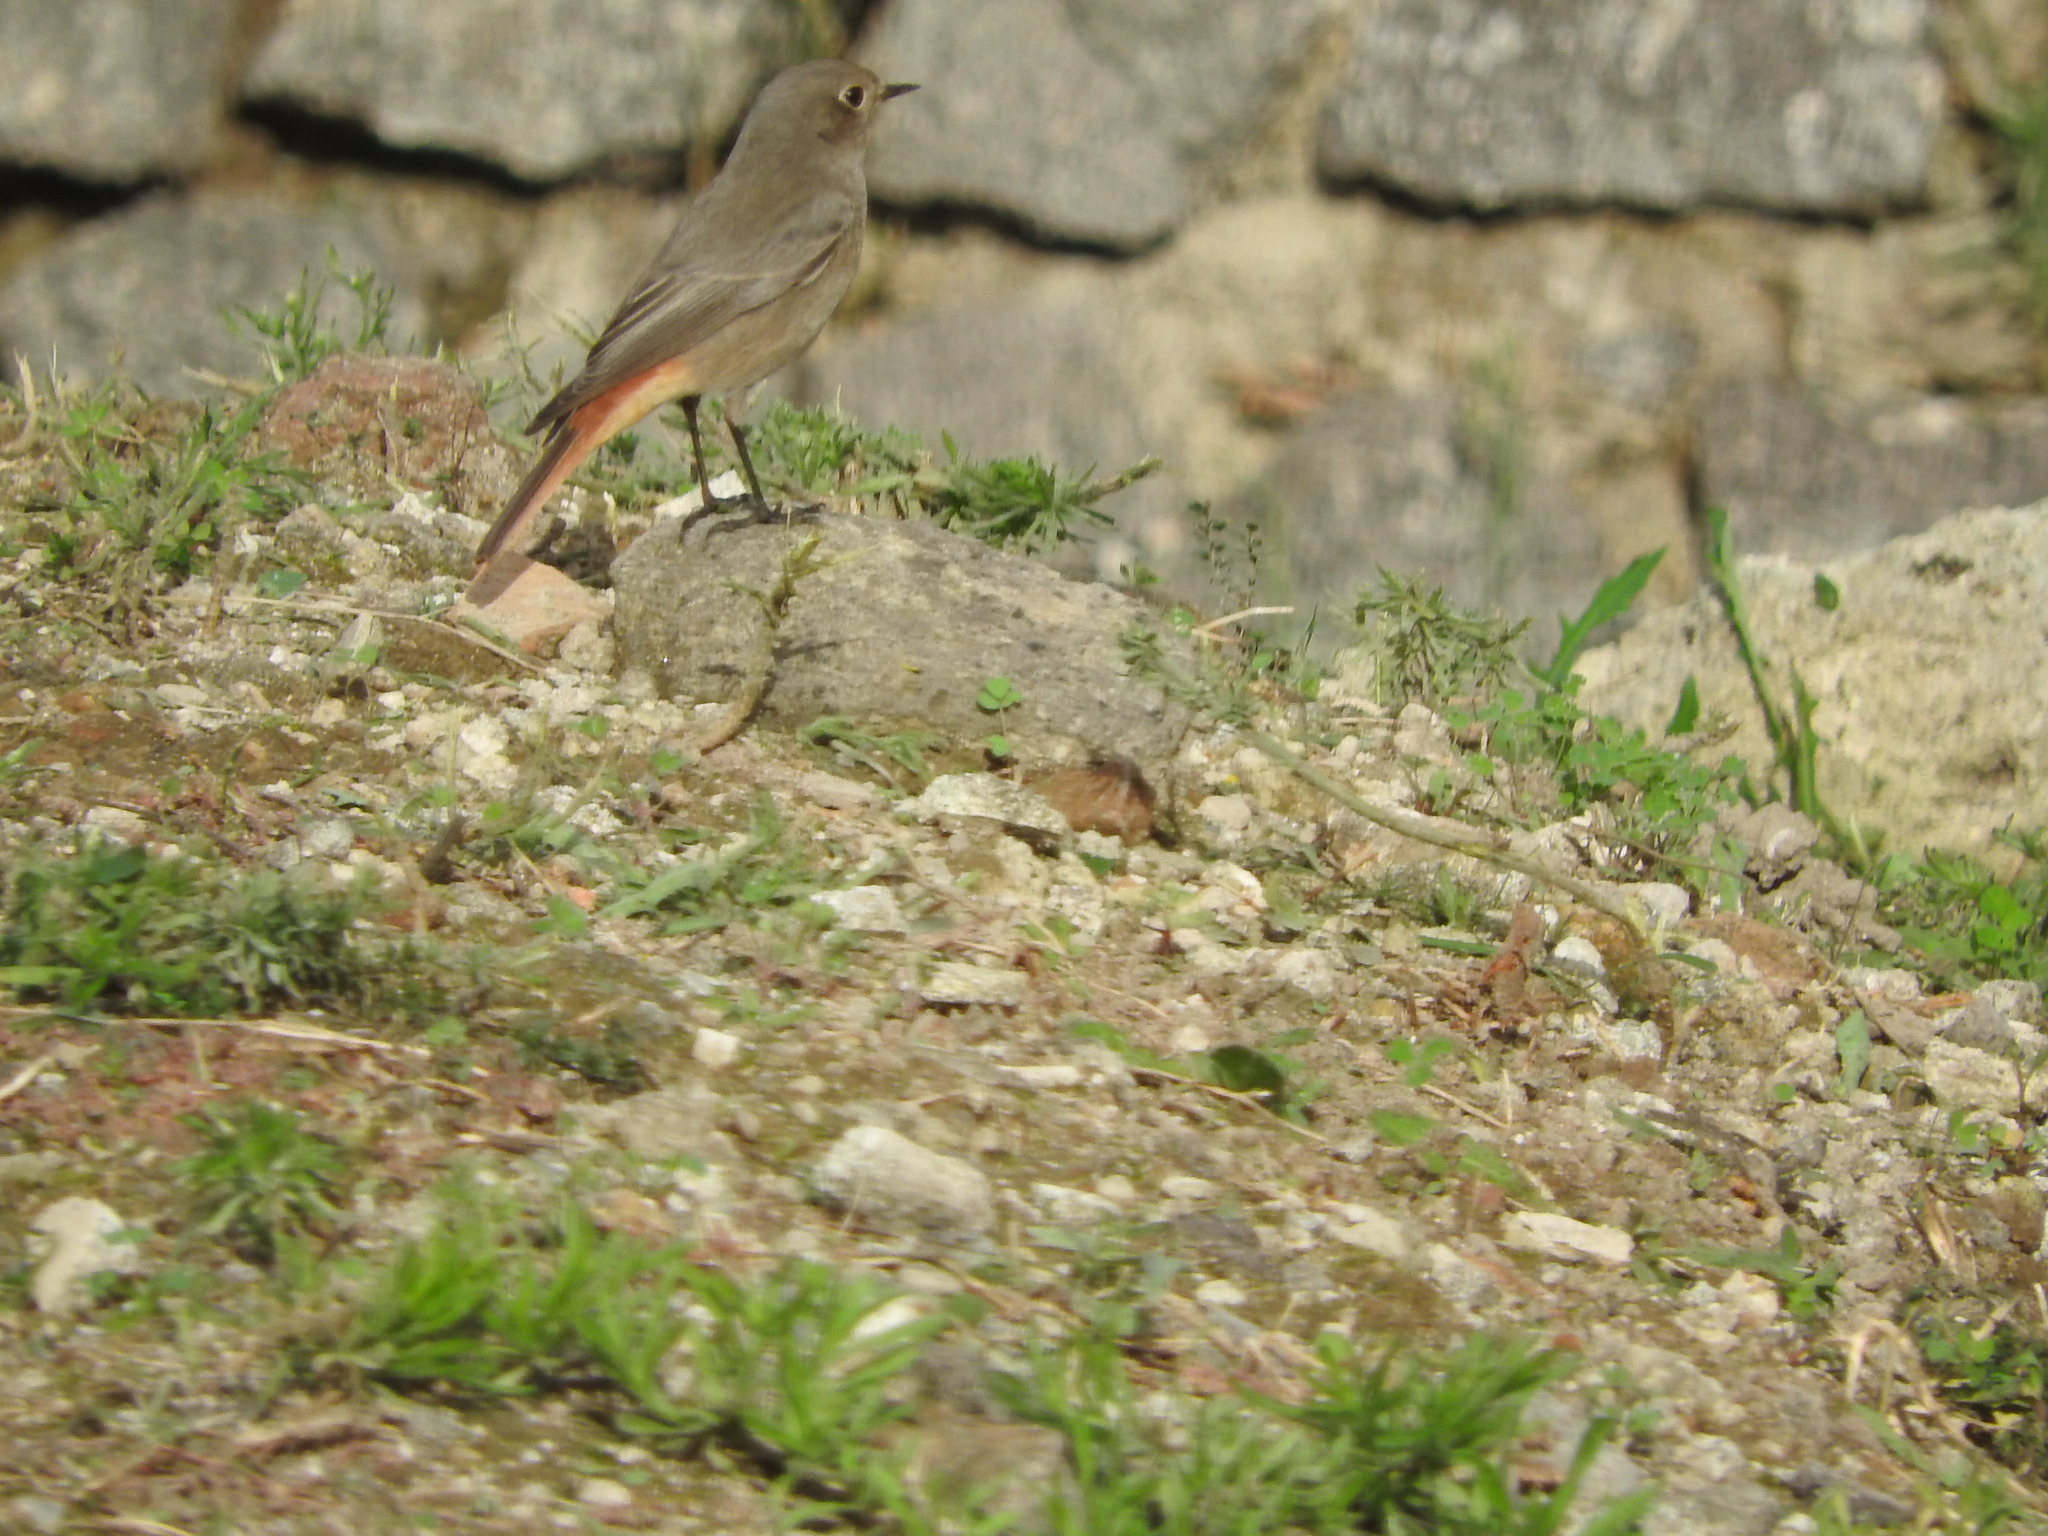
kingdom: Animalia
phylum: Chordata
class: Aves
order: Passeriformes
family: Muscicapidae
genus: Phoenicurus
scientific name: Phoenicurus ochruros
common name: Black redstart
